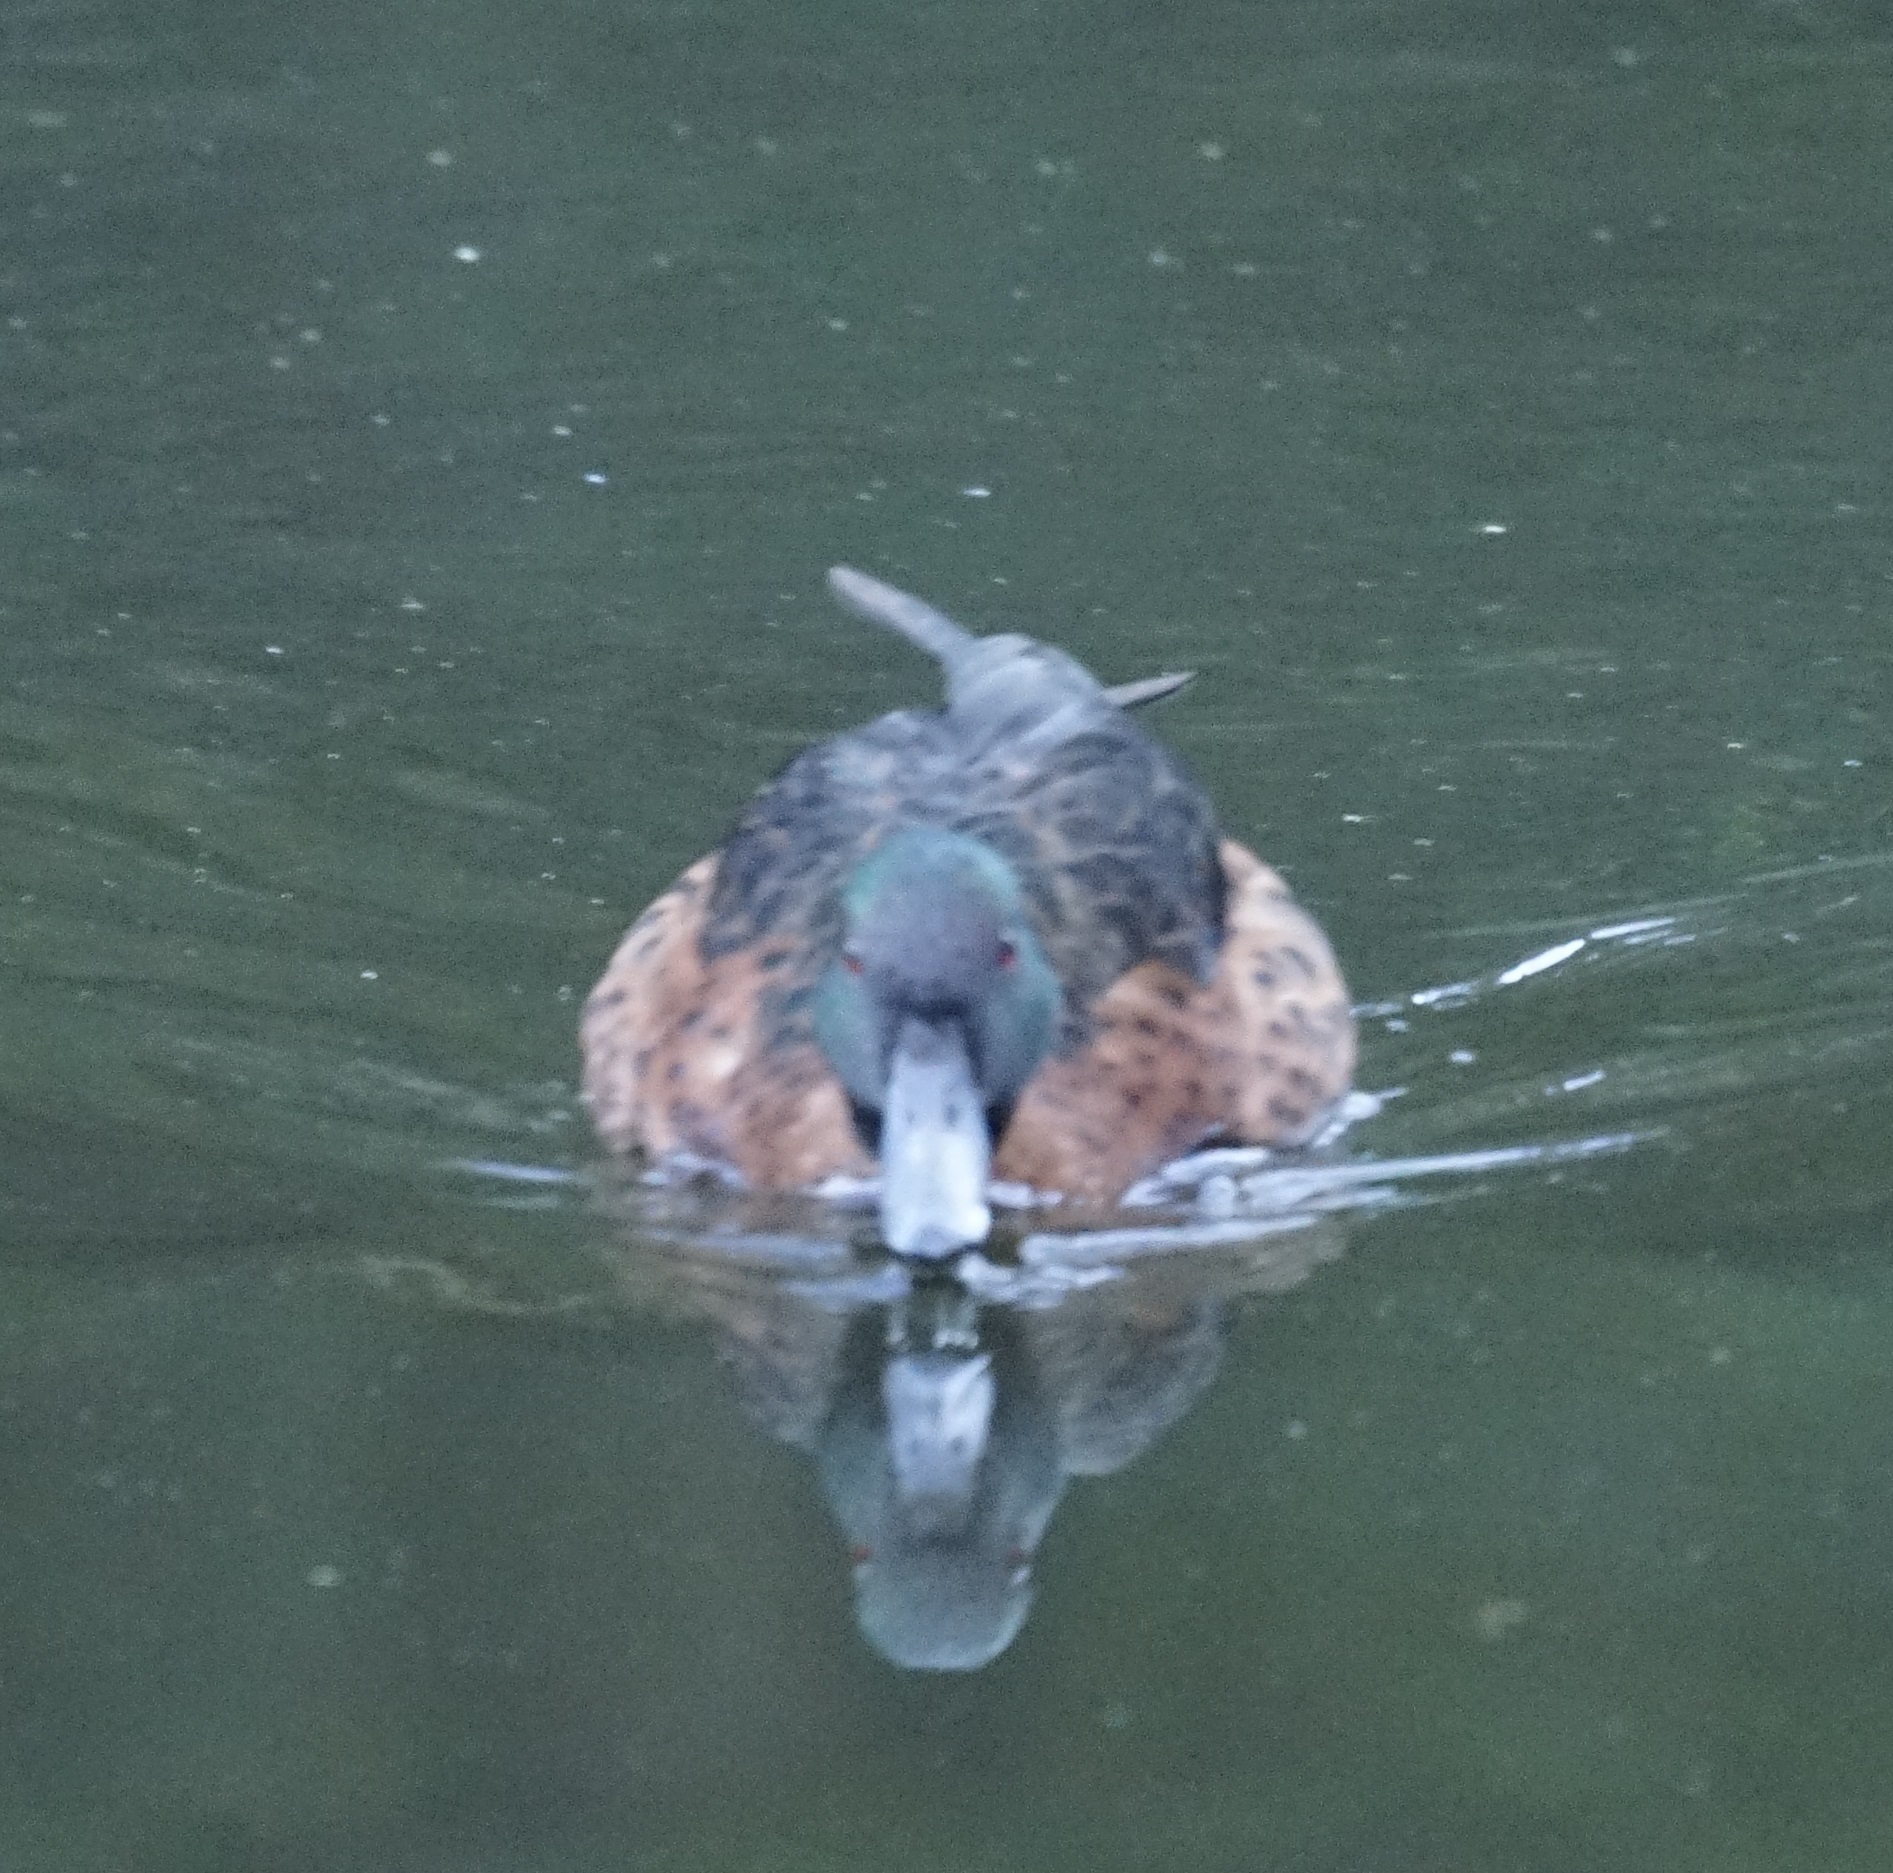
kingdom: Animalia
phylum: Chordata
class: Aves
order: Anseriformes
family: Anatidae
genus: Anas
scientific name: Anas castanea
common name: Chestnut teal
